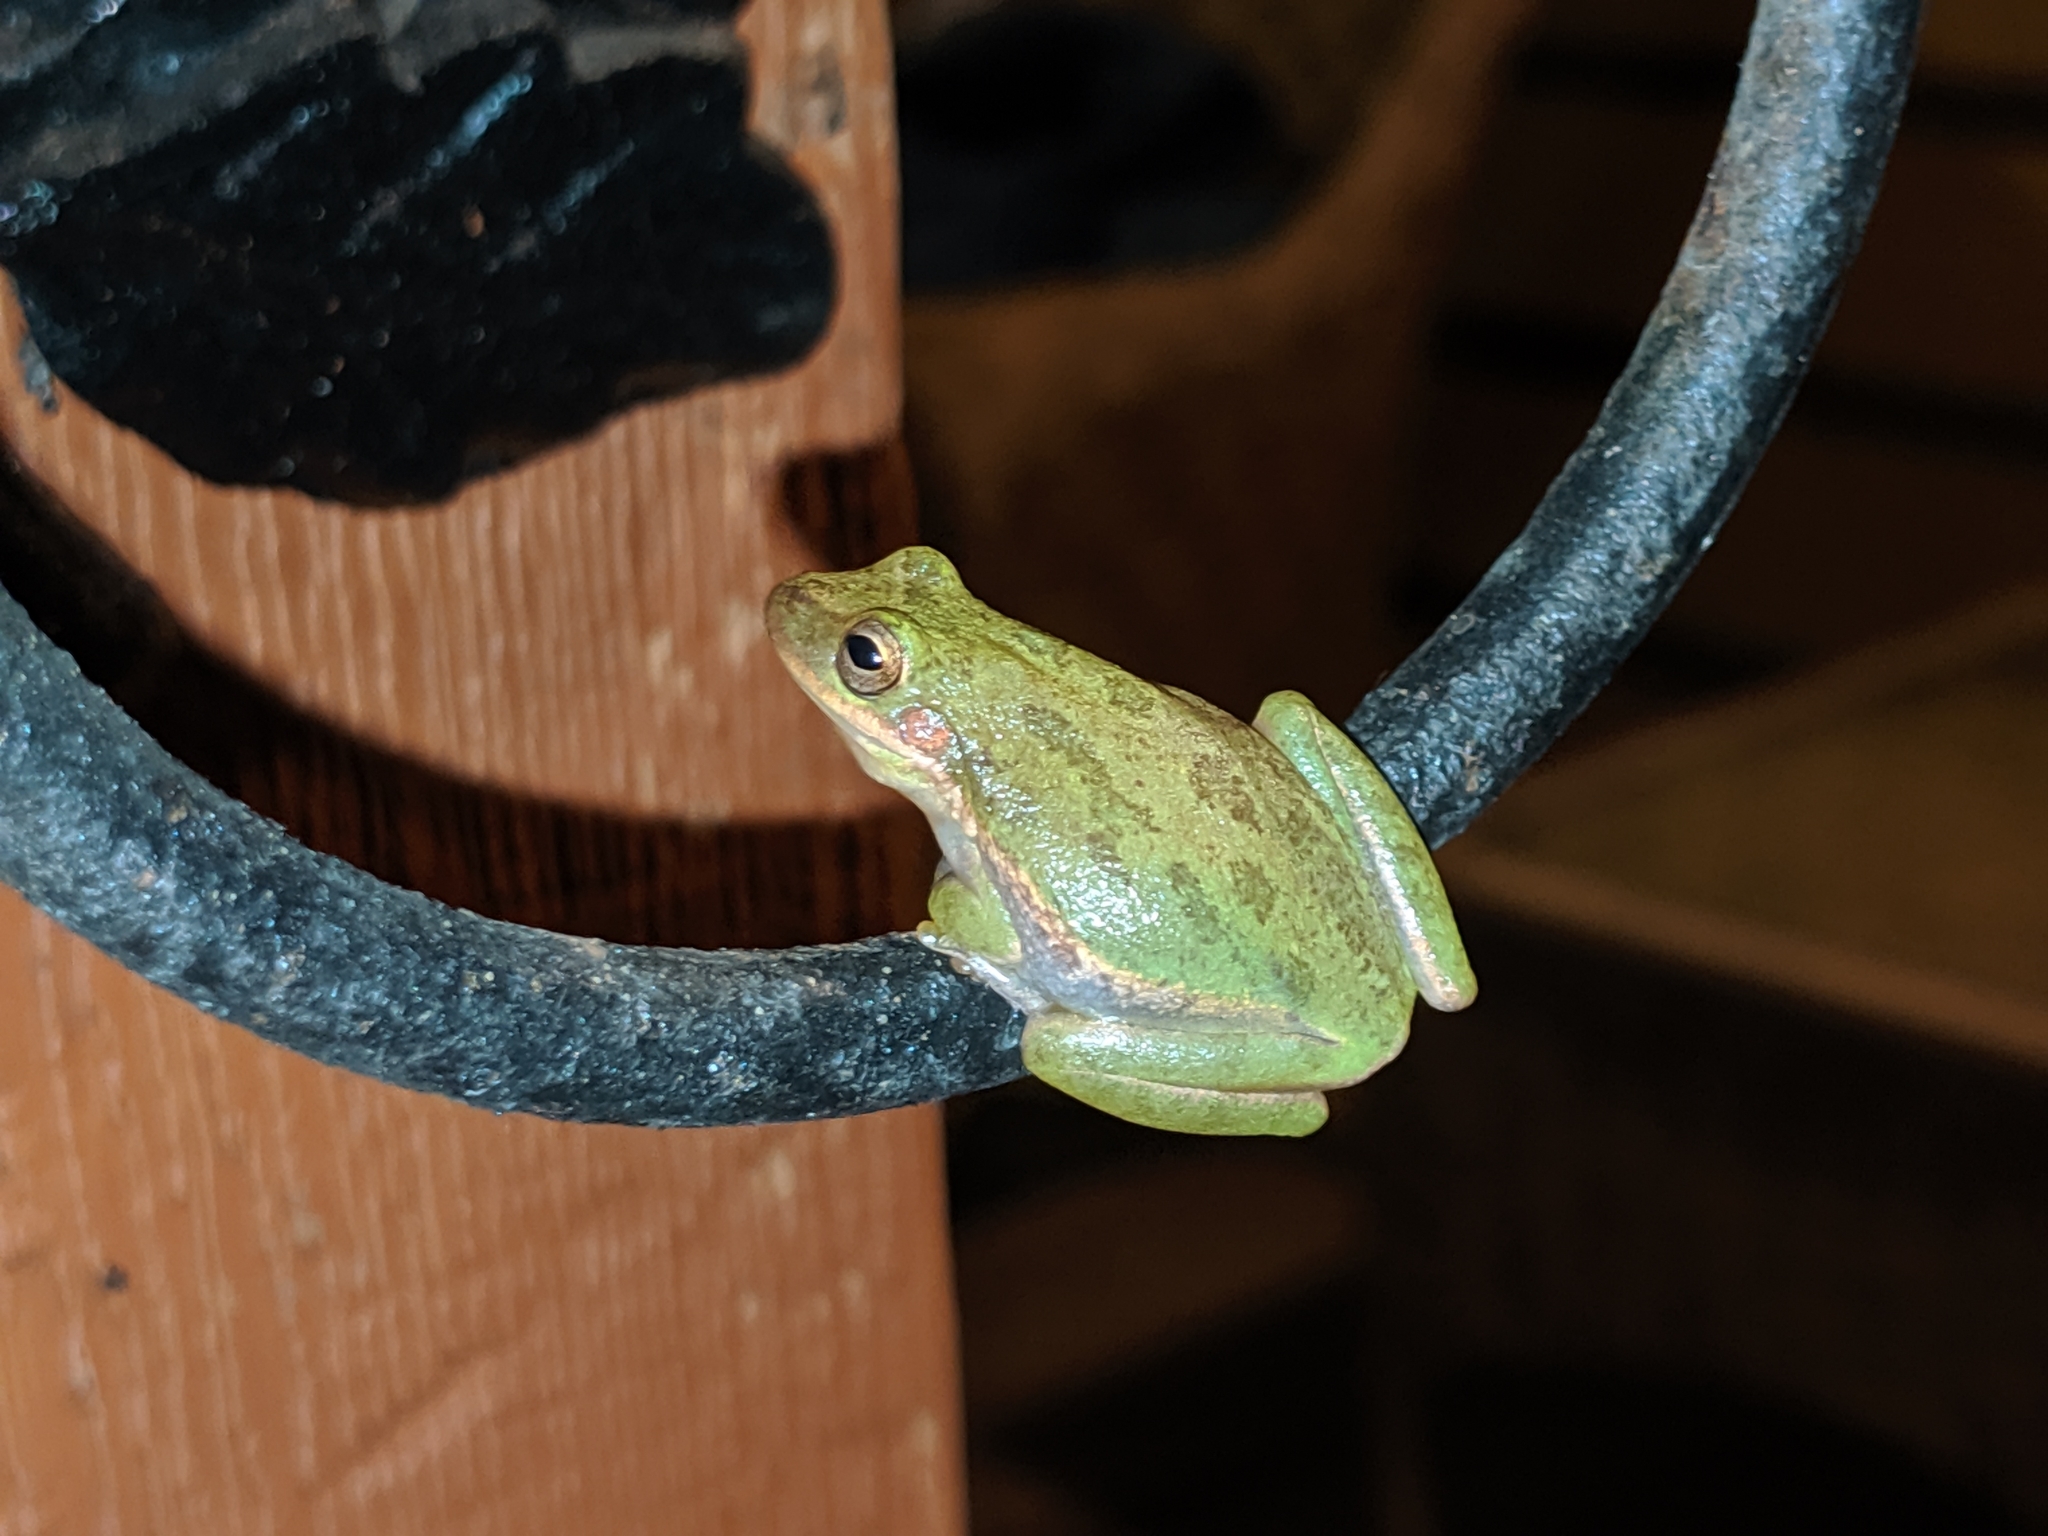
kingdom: Animalia
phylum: Chordata
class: Amphibia
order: Anura
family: Hylidae
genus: Dryophytes
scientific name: Dryophytes squirellus
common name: Squirrel treefrog
